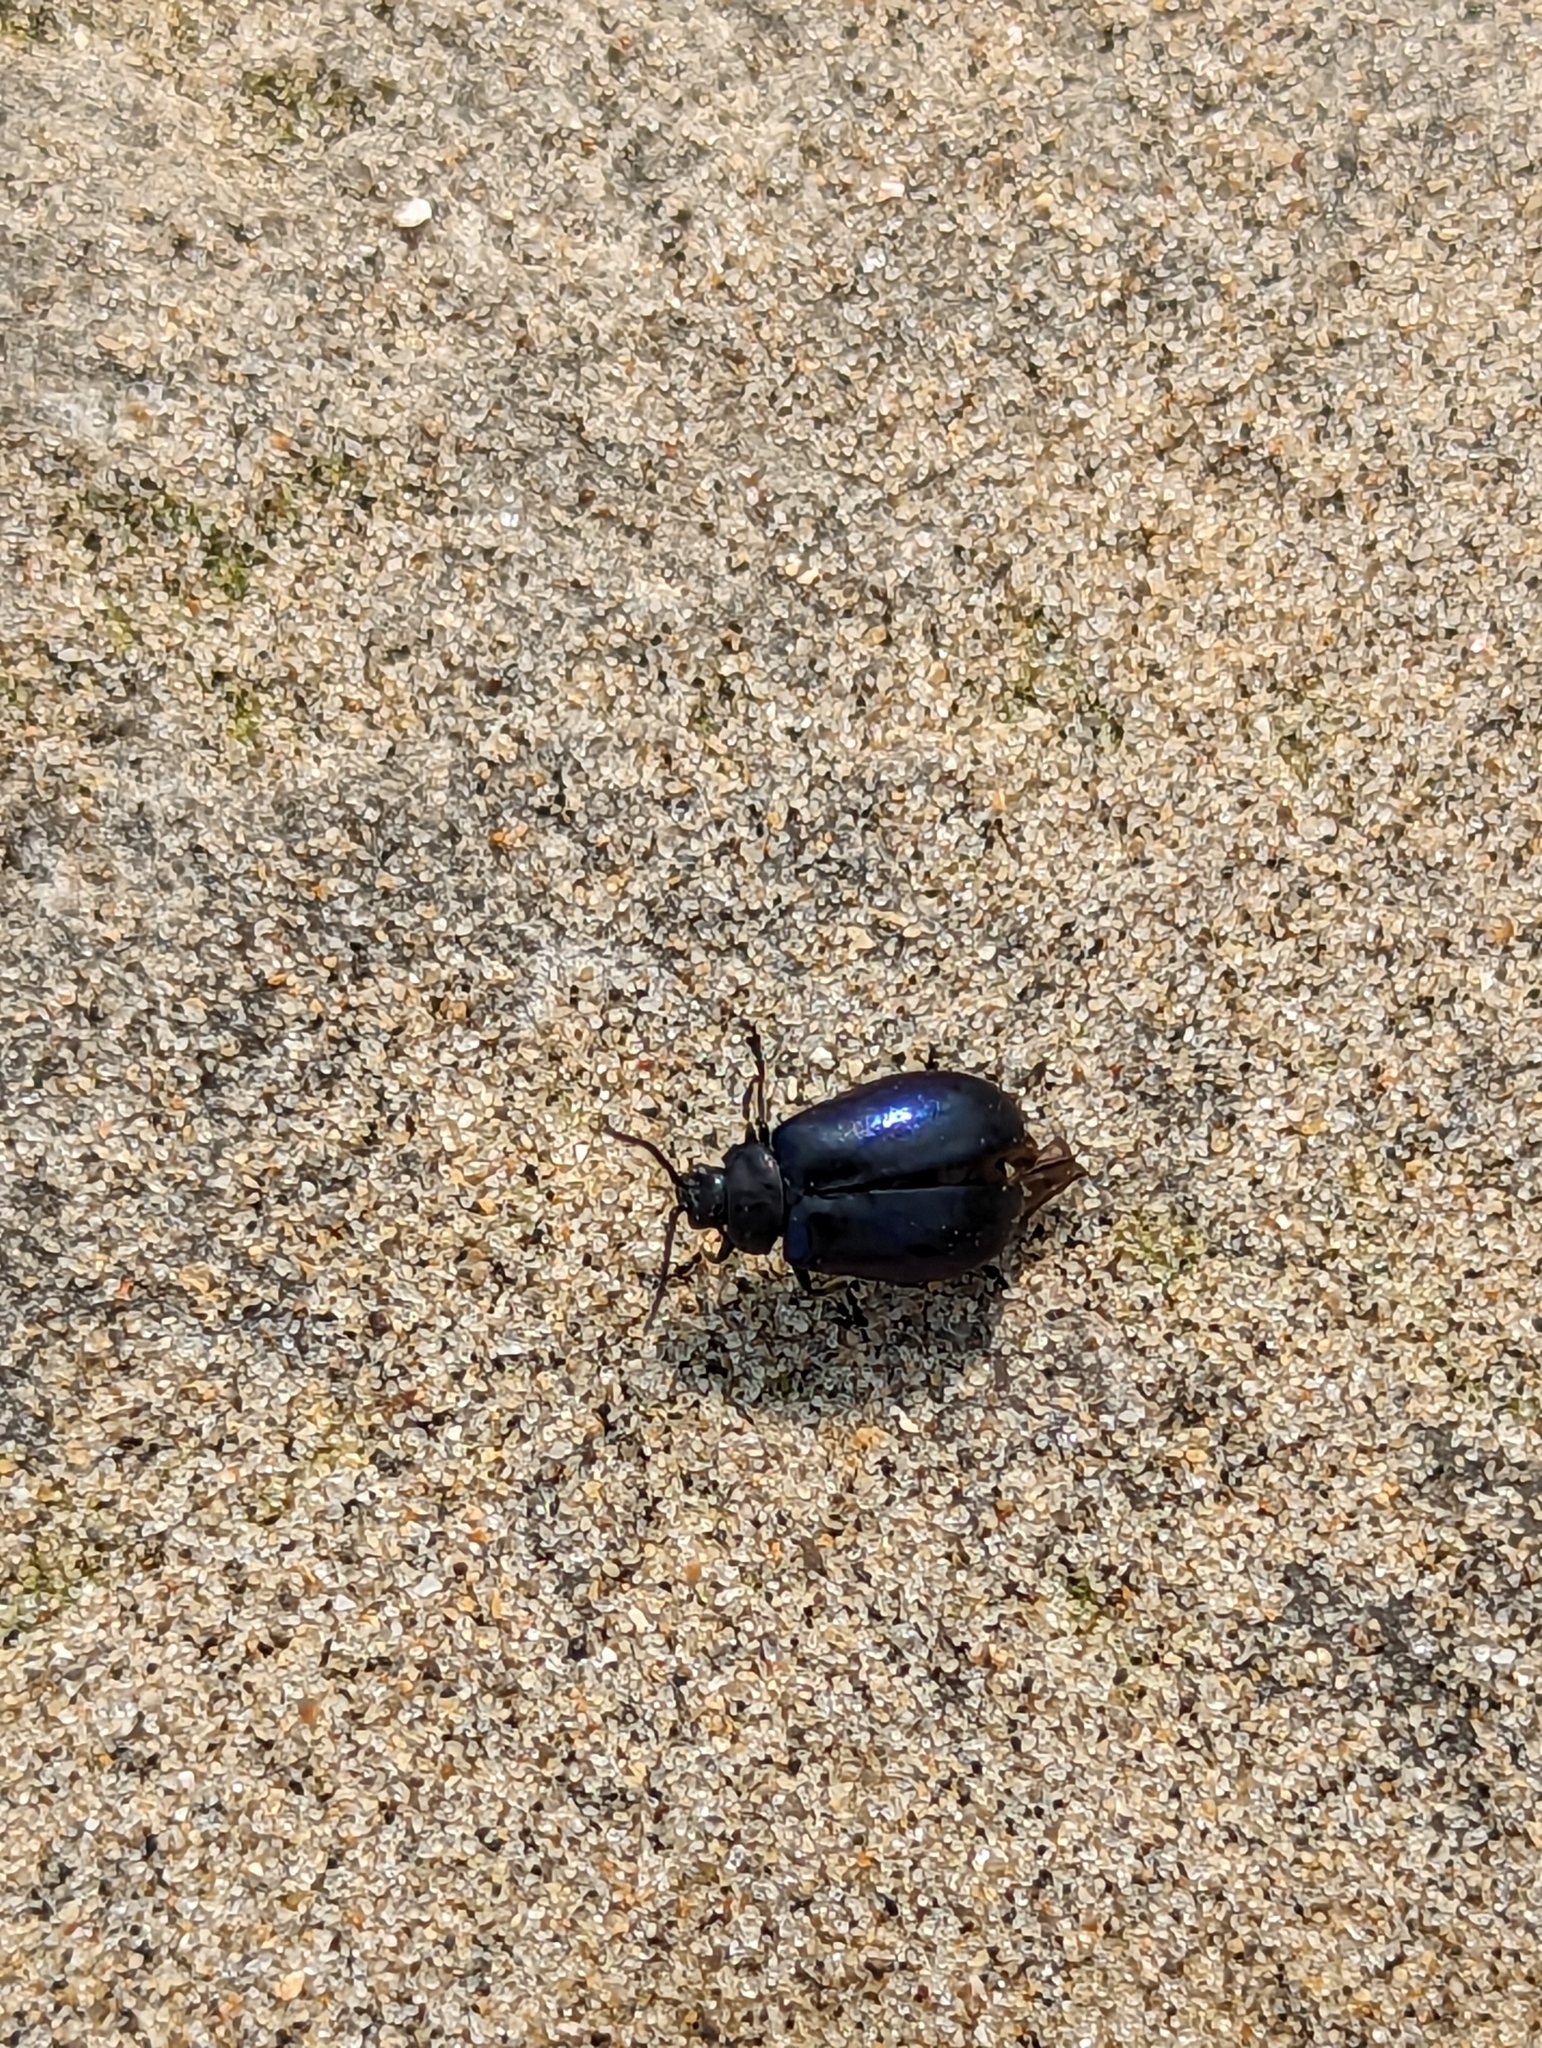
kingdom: Animalia
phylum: Arthropoda
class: Insecta
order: Coleoptera
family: Chrysomelidae
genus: Agelastica
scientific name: Agelastica alni
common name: Alder leaf beetle
